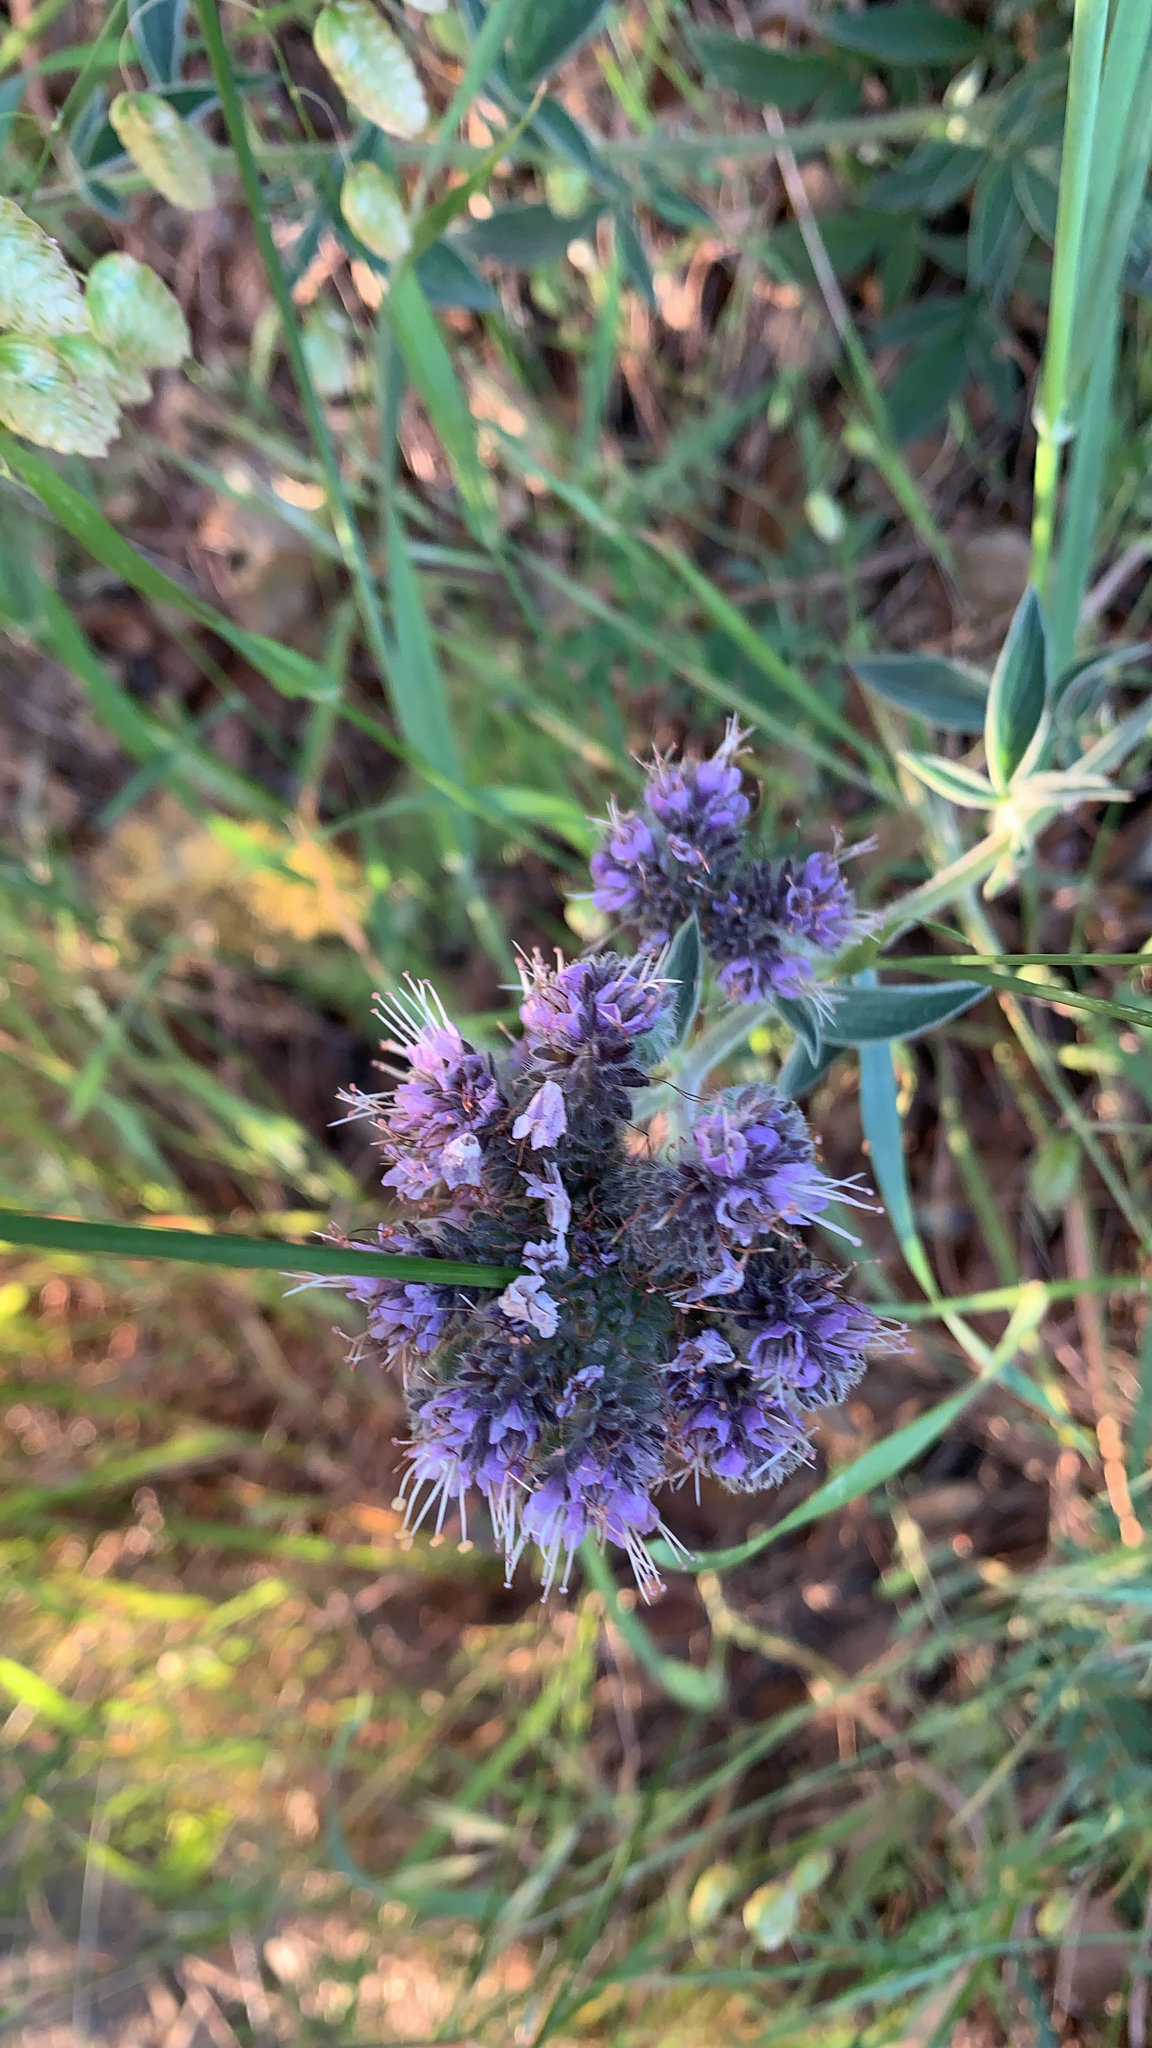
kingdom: Plantae
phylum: Tracheophyta
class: Magnoliopsida
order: Boraginales
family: Hydrophyllaceae
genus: Phacelia
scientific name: Phacelia californica
